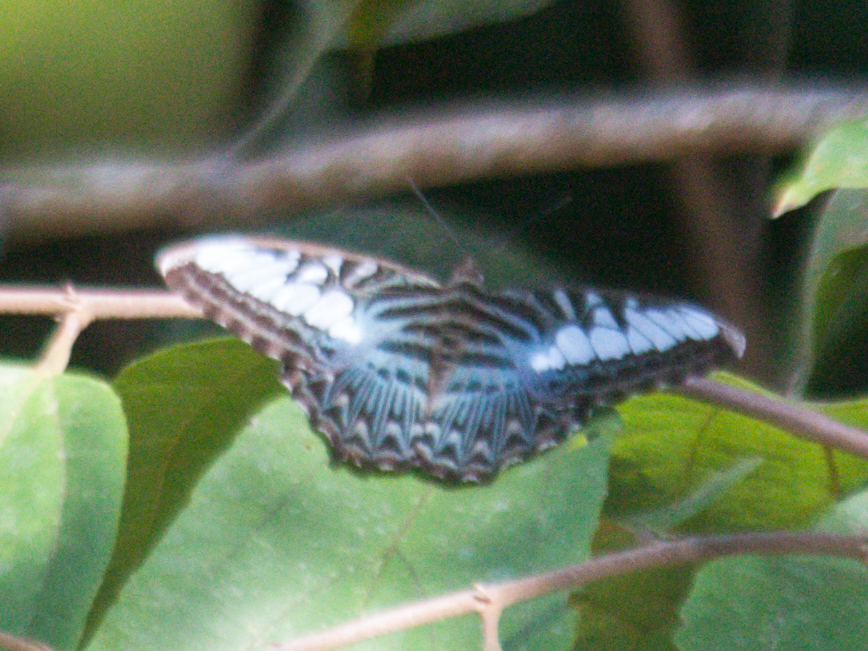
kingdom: Animalia
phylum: Arthropoda
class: Insecta
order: Lepidoptera
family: Nymphalidae
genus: Kallima
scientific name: Kallima sylvia
